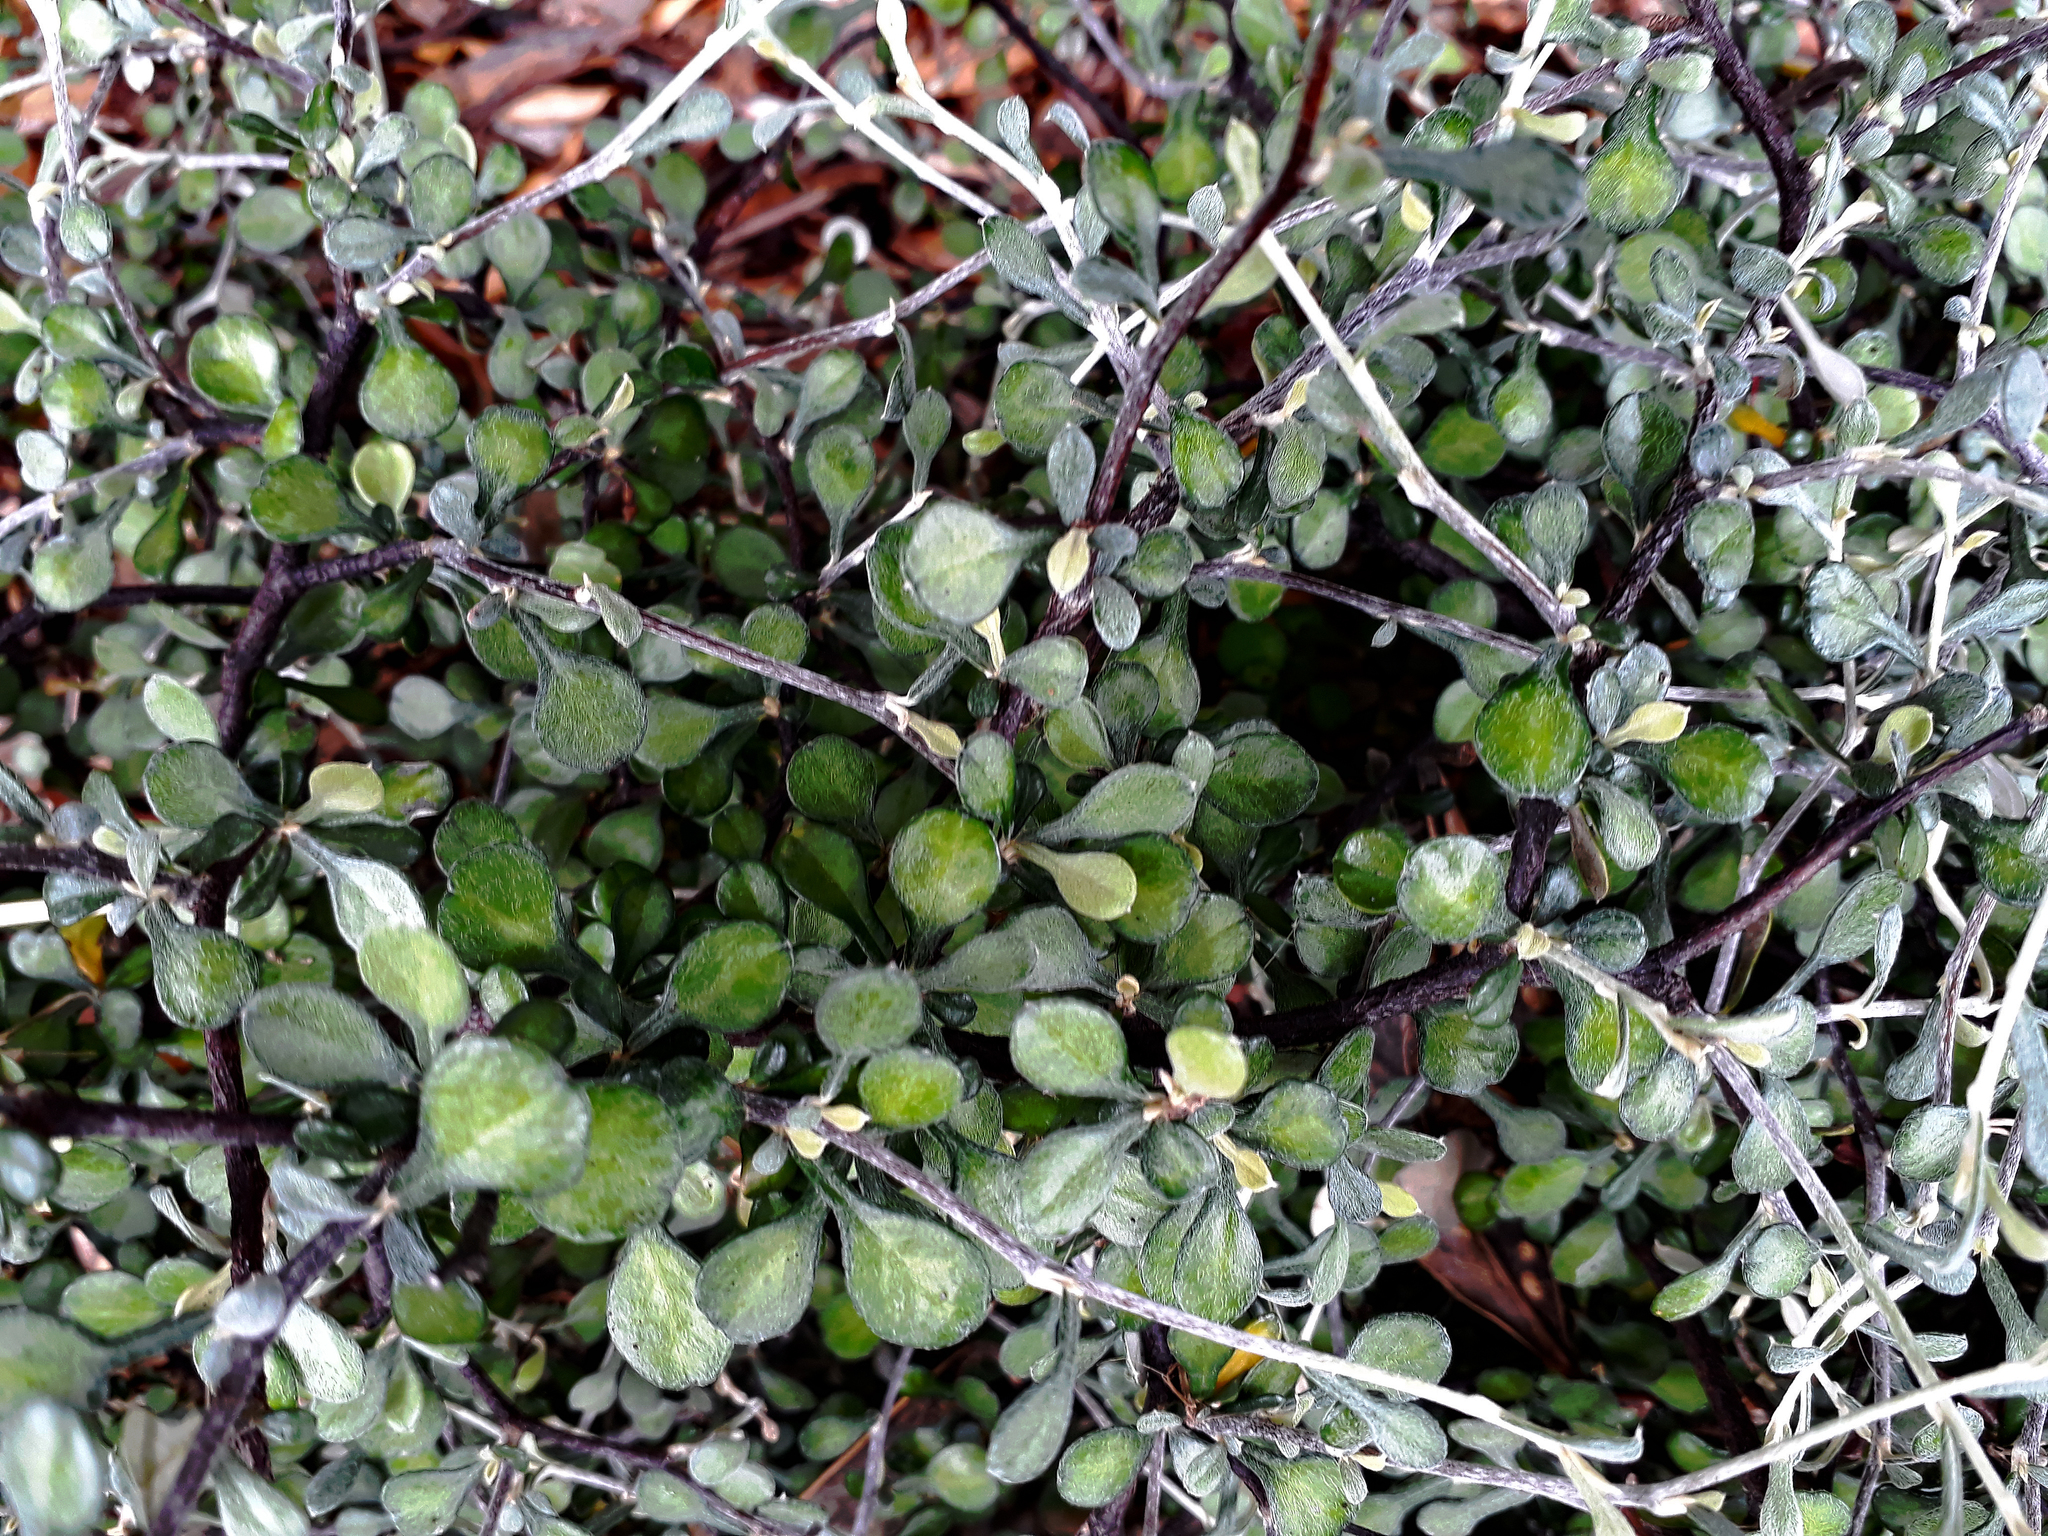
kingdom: Plantae
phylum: Tracheophyta
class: Magnoliopsida
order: Asterales
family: Argophyllaceae
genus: Corokia
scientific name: Corokia cotoneaster
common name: Wire nettingbush
